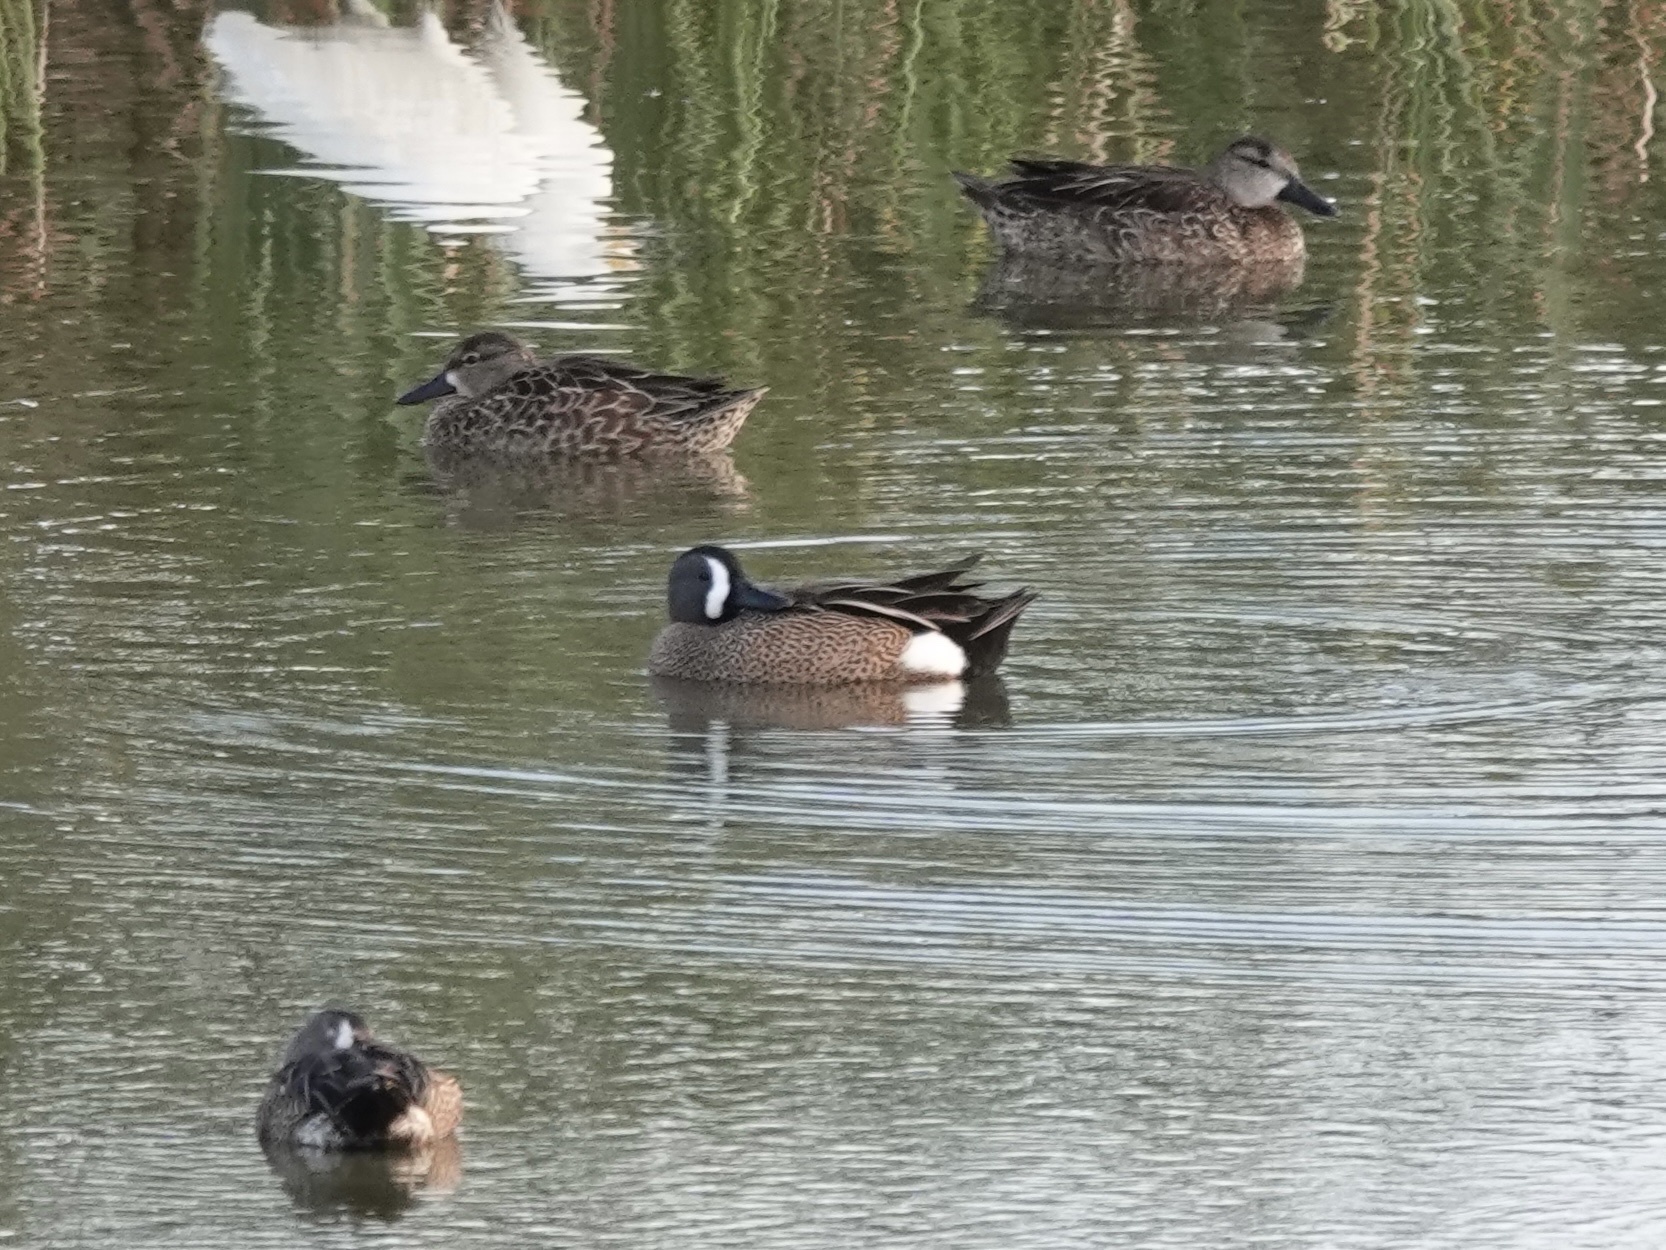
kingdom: Animalia
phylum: Chordata
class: Aves
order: Anseriformes
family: Anatidae
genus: Spatula
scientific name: Spatula discors
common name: Blue-winged teal
